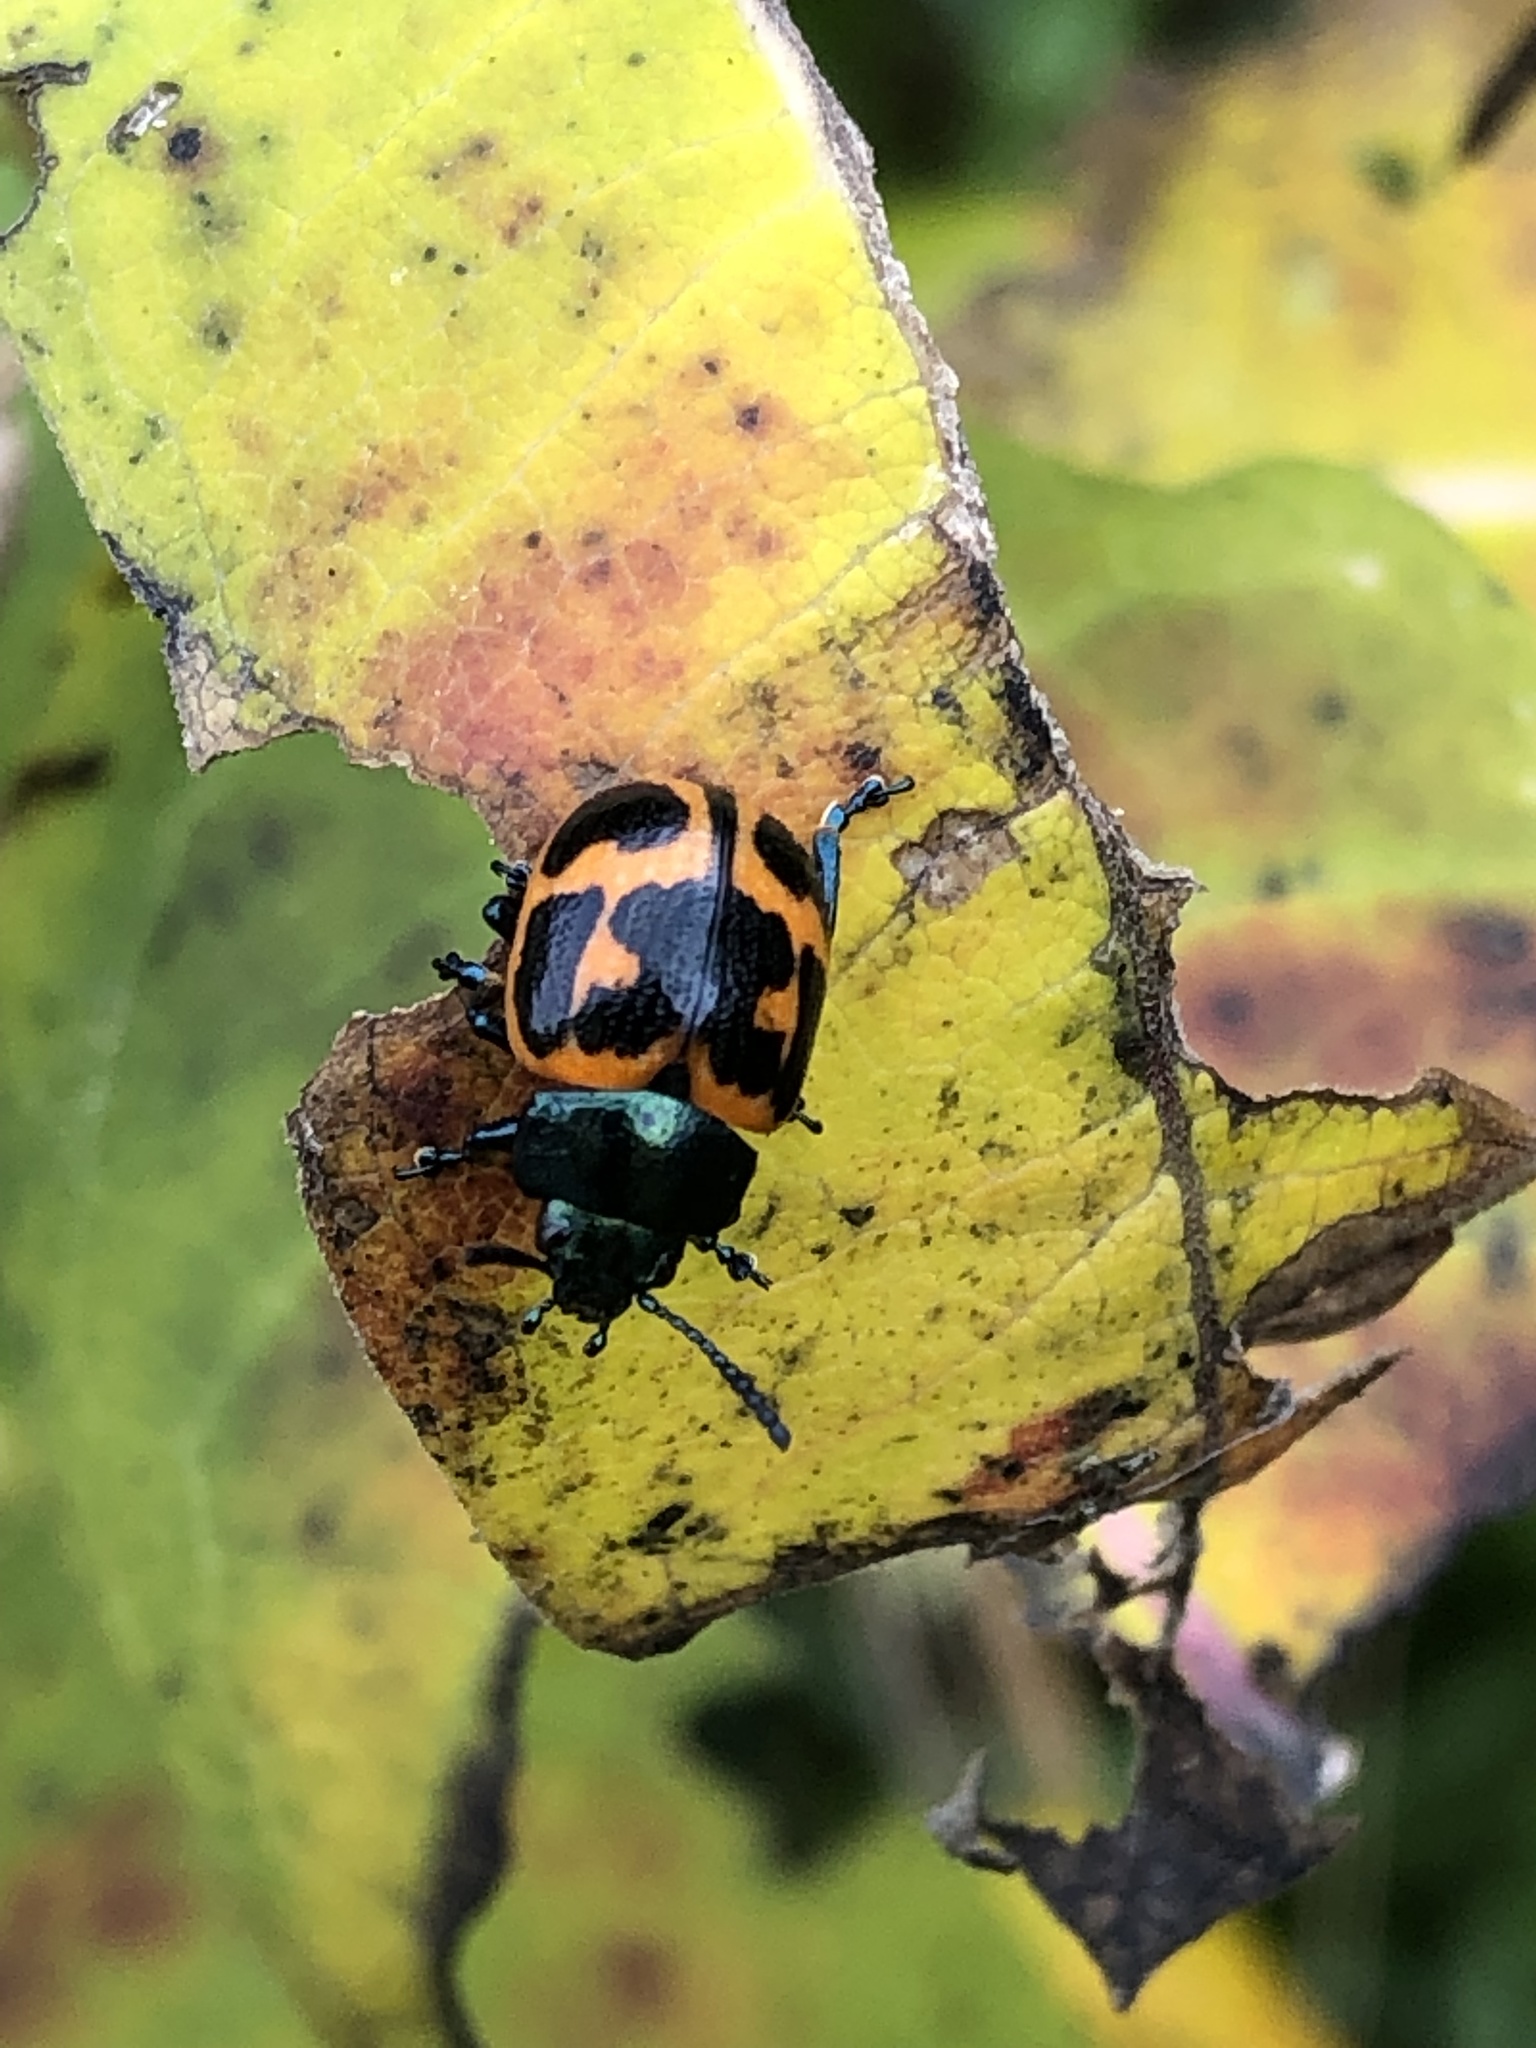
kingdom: Animalia
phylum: Arthropoda
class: Insecta
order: Coleoptera
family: Chrysomelidae
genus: Labidomera
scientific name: Labidomera clivicollis
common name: Swamp milkweed leaf beetle
